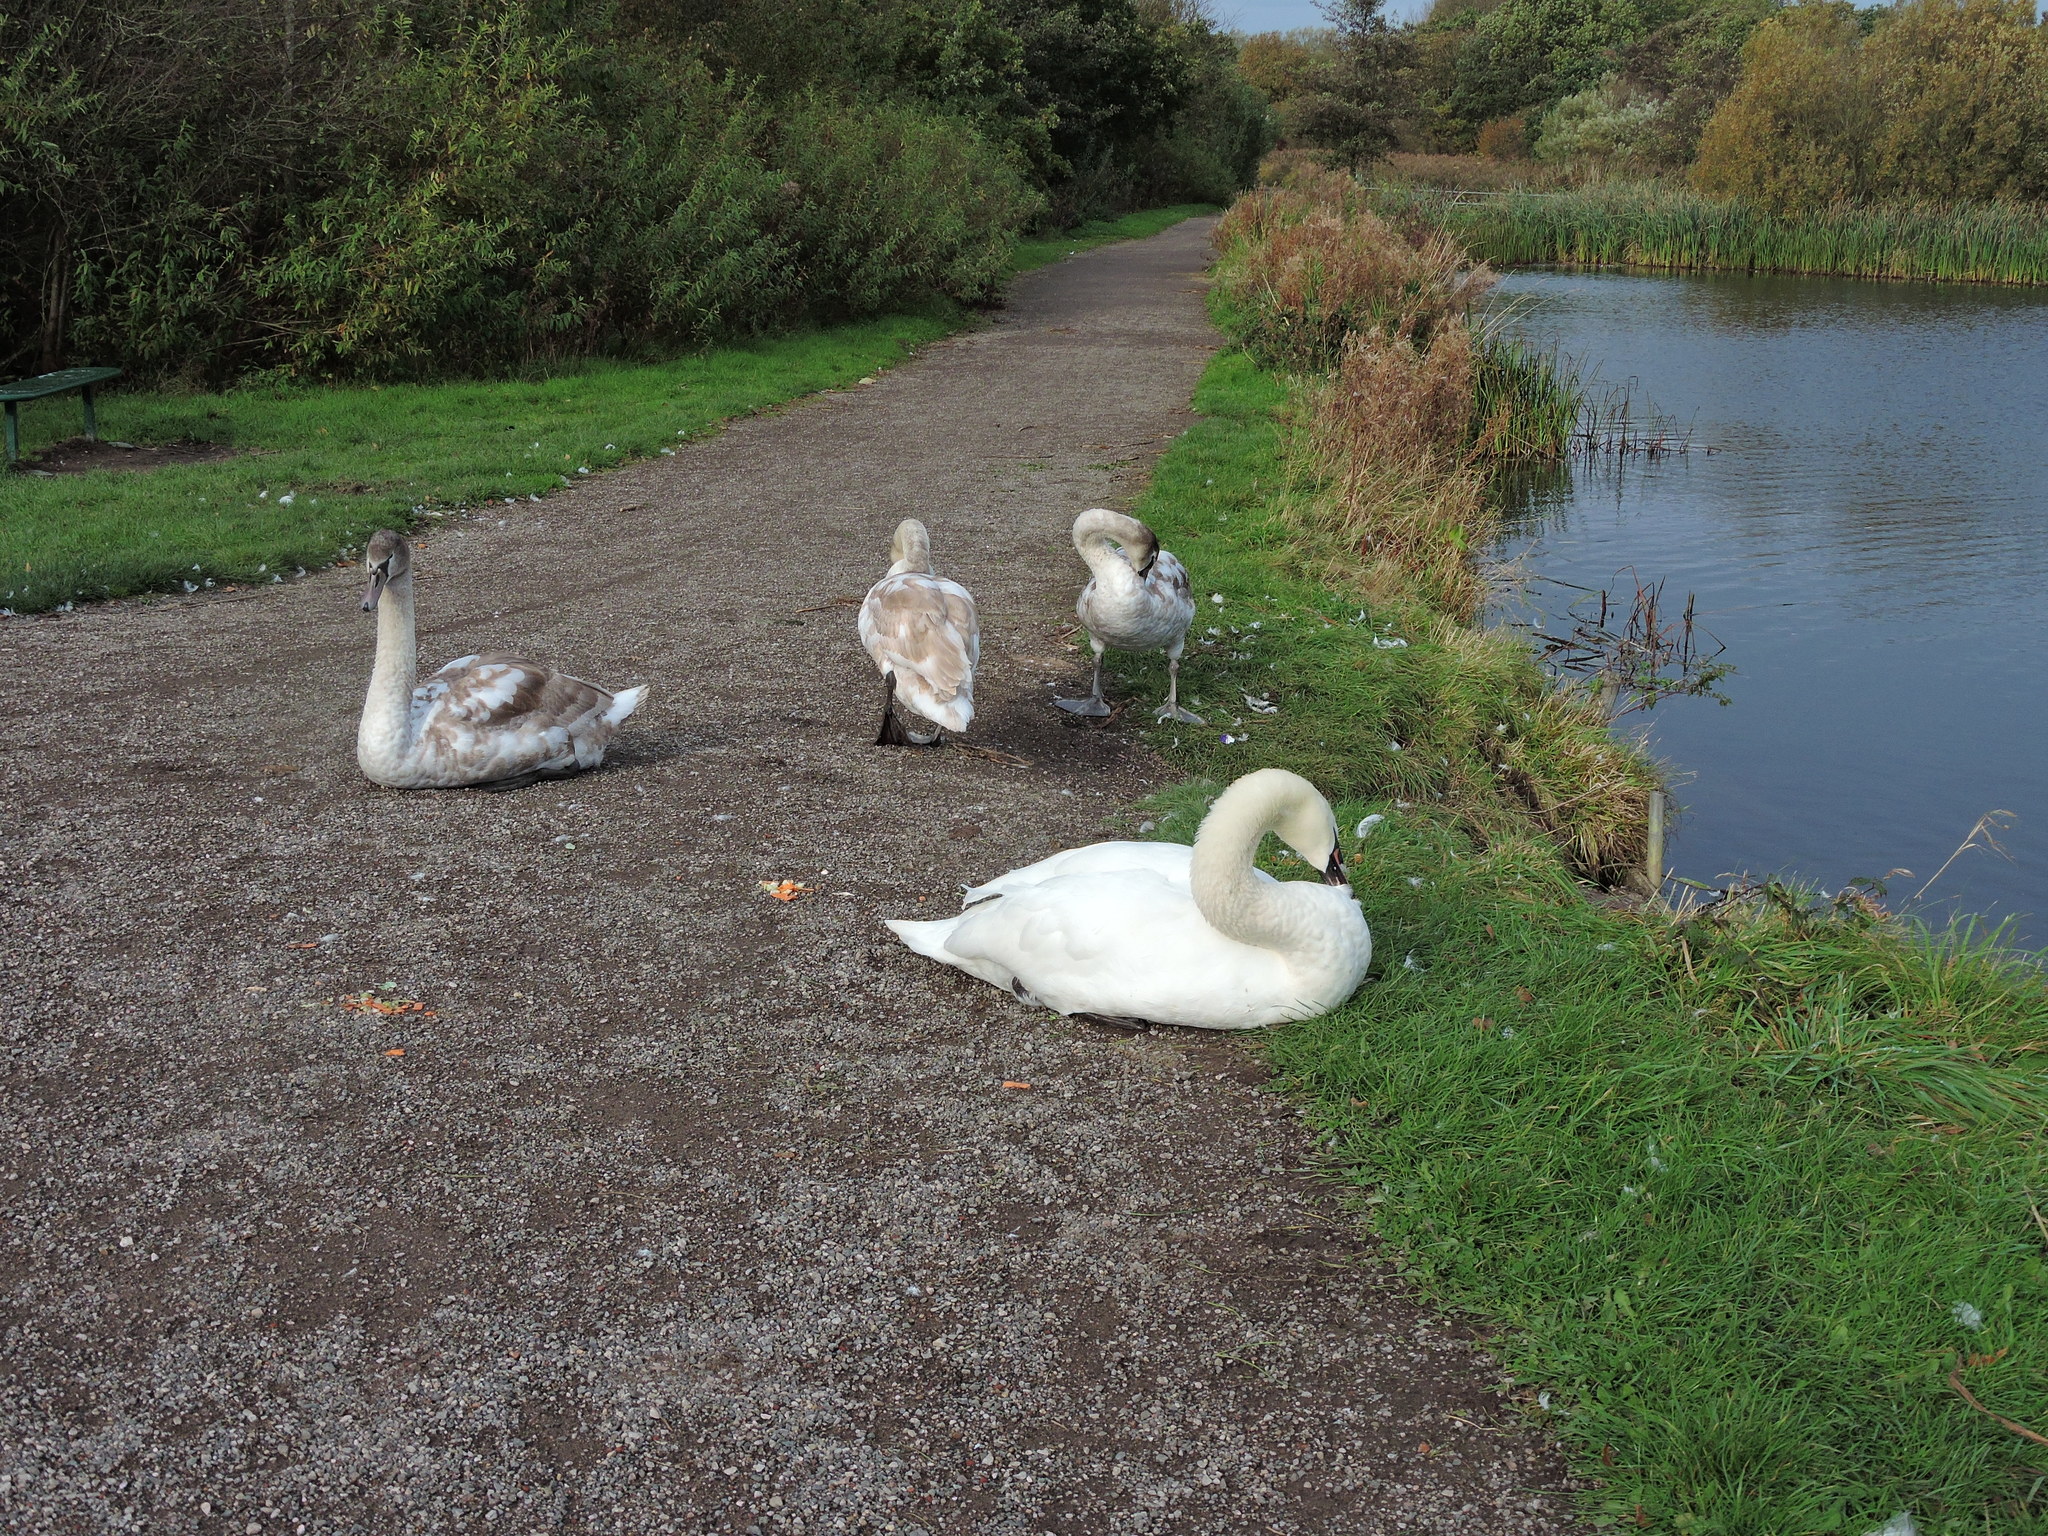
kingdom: Animalia
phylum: Chordata
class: Aves
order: Anseriformes
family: Anatidae
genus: Cygnus
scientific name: Cygnus olor
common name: Mute swan
